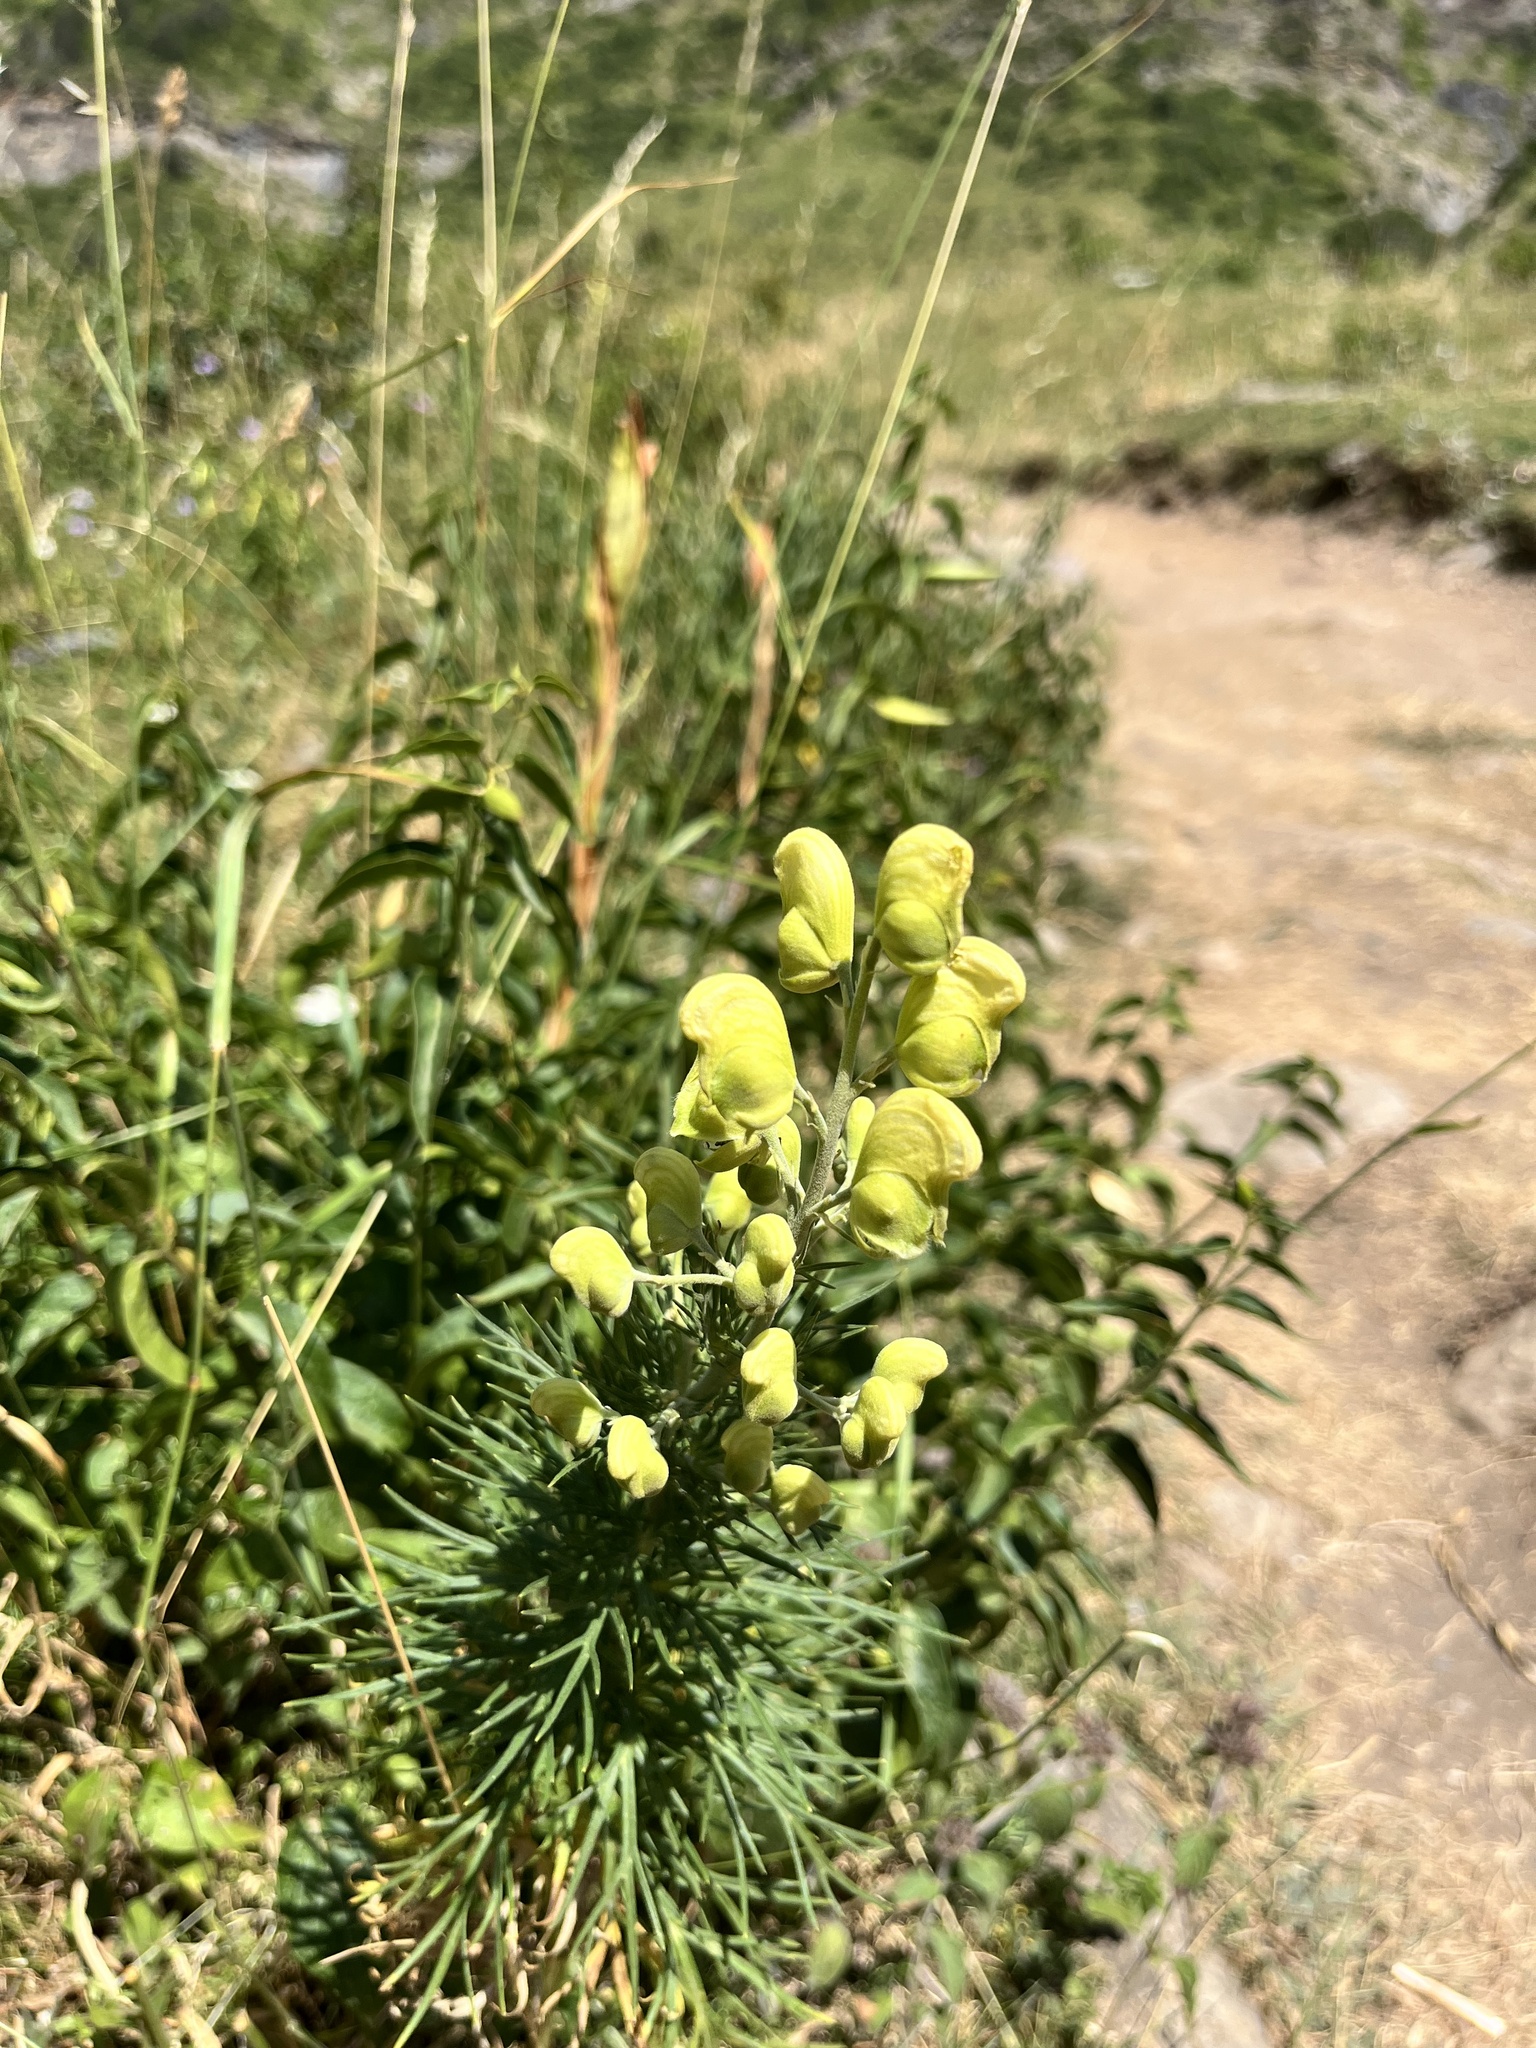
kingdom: Plantae
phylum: Tracheophyta
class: Magnoliopsida
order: Ranunculales
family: Ranunculaceae
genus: Aconitum
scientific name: Aconitum anthora
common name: Yellow monkshood
